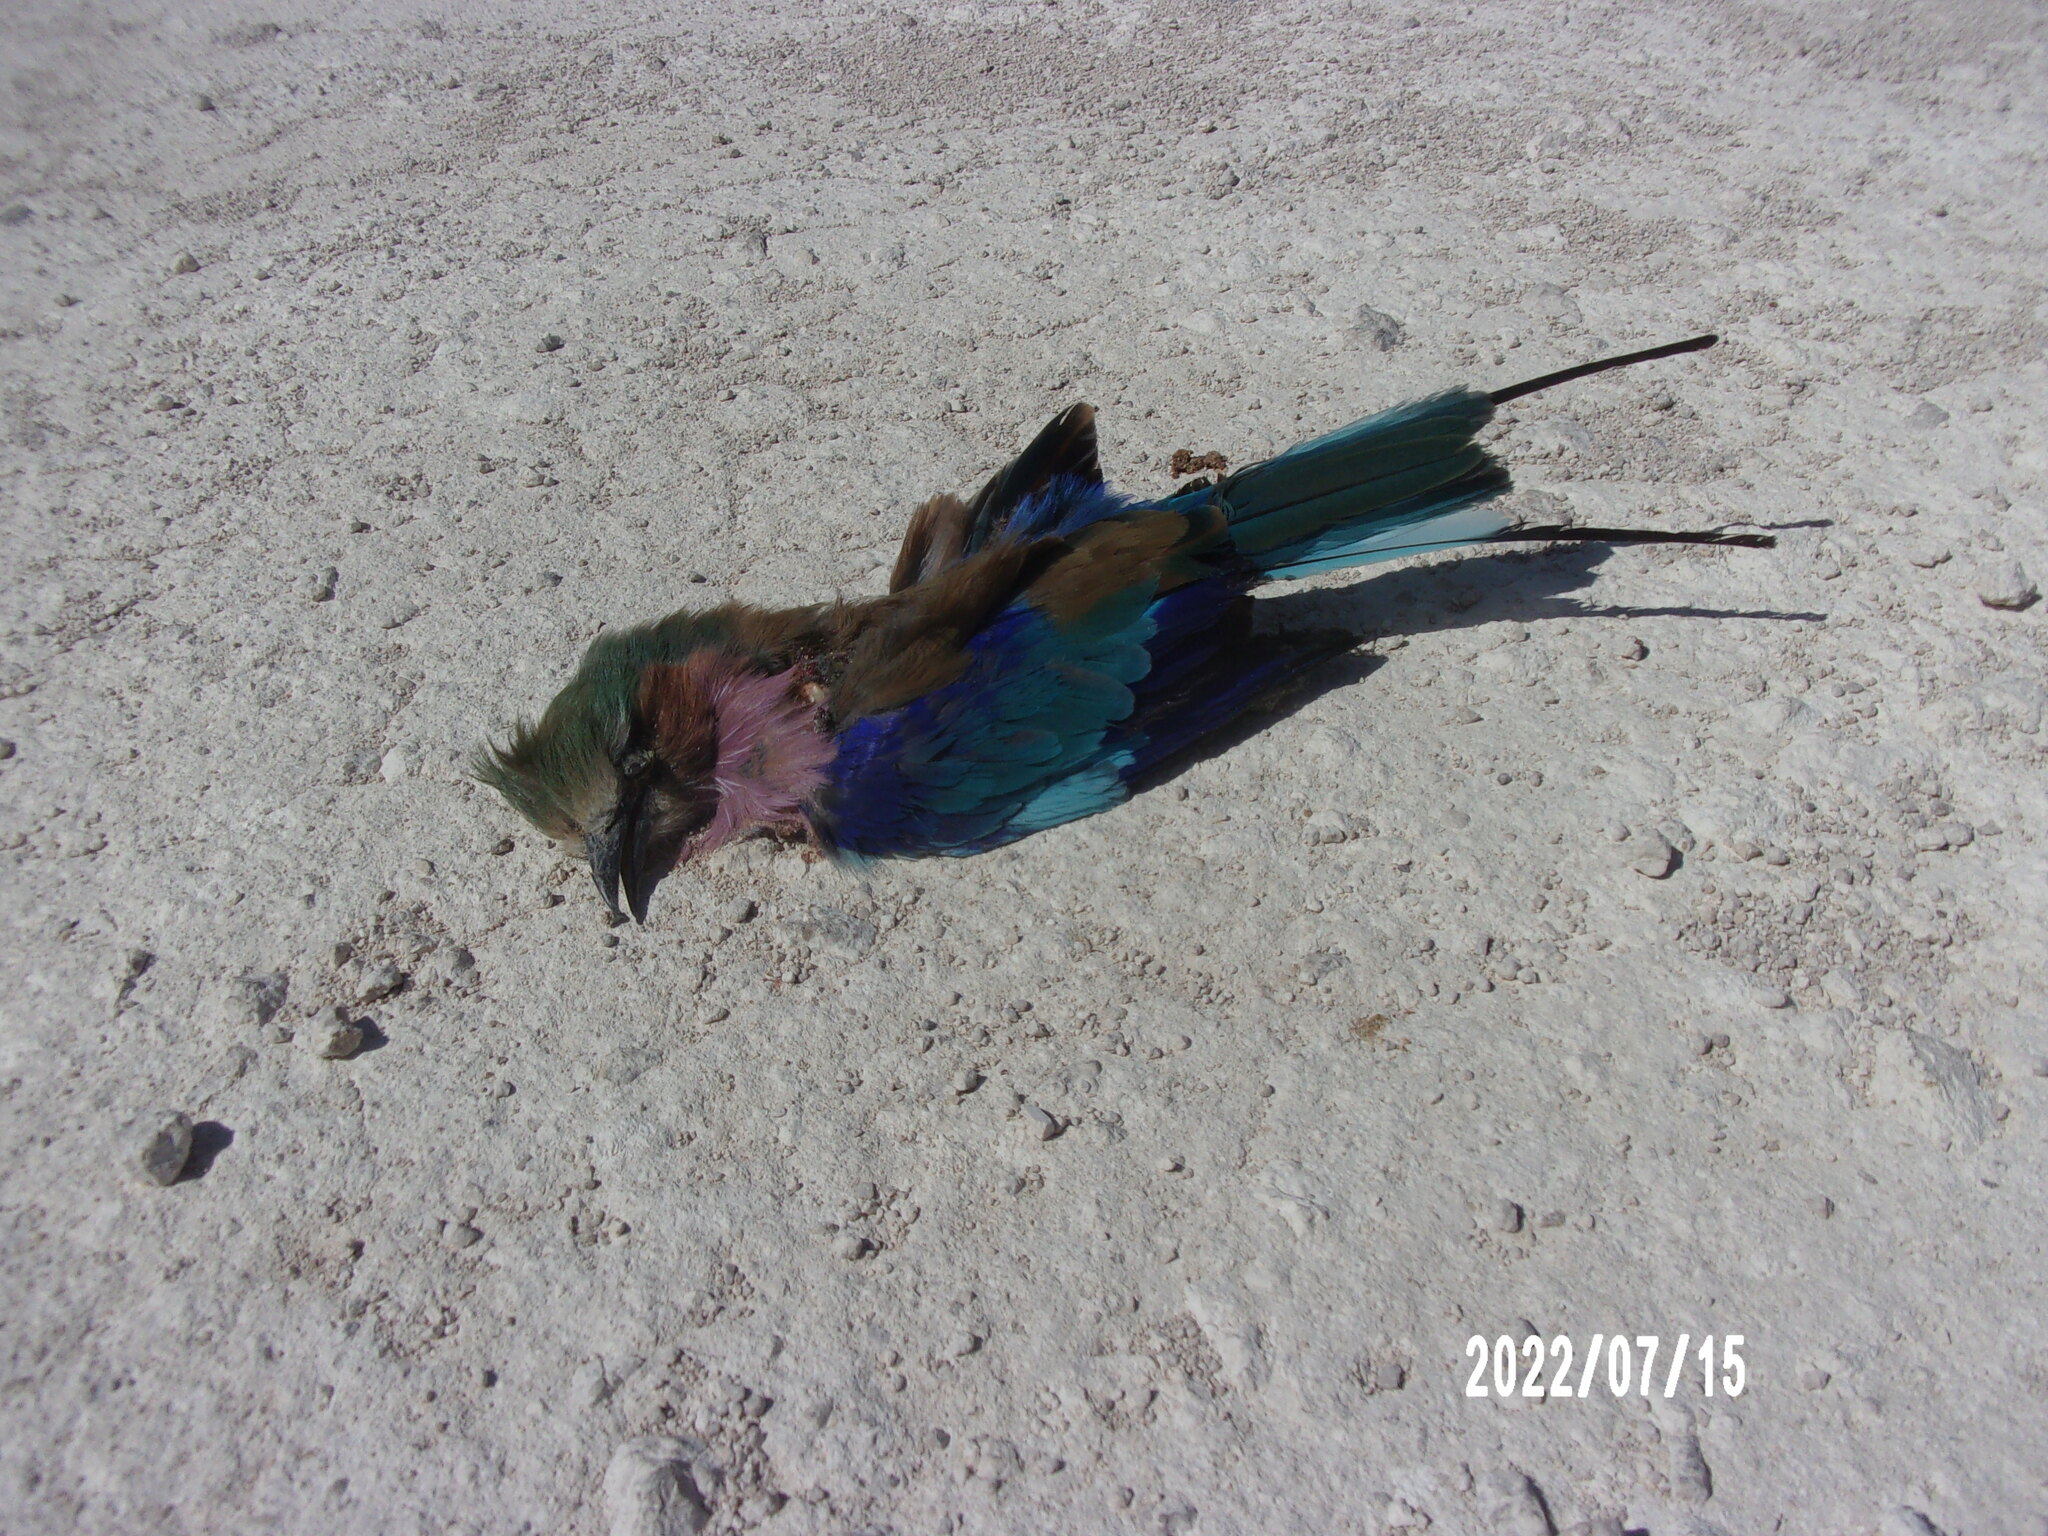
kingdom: Animalia
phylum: Chordata
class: Aves
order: Coraciiformes
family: Coraciidae
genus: Coracias
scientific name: Coracias caudatus
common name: Lilac-breasted roller
